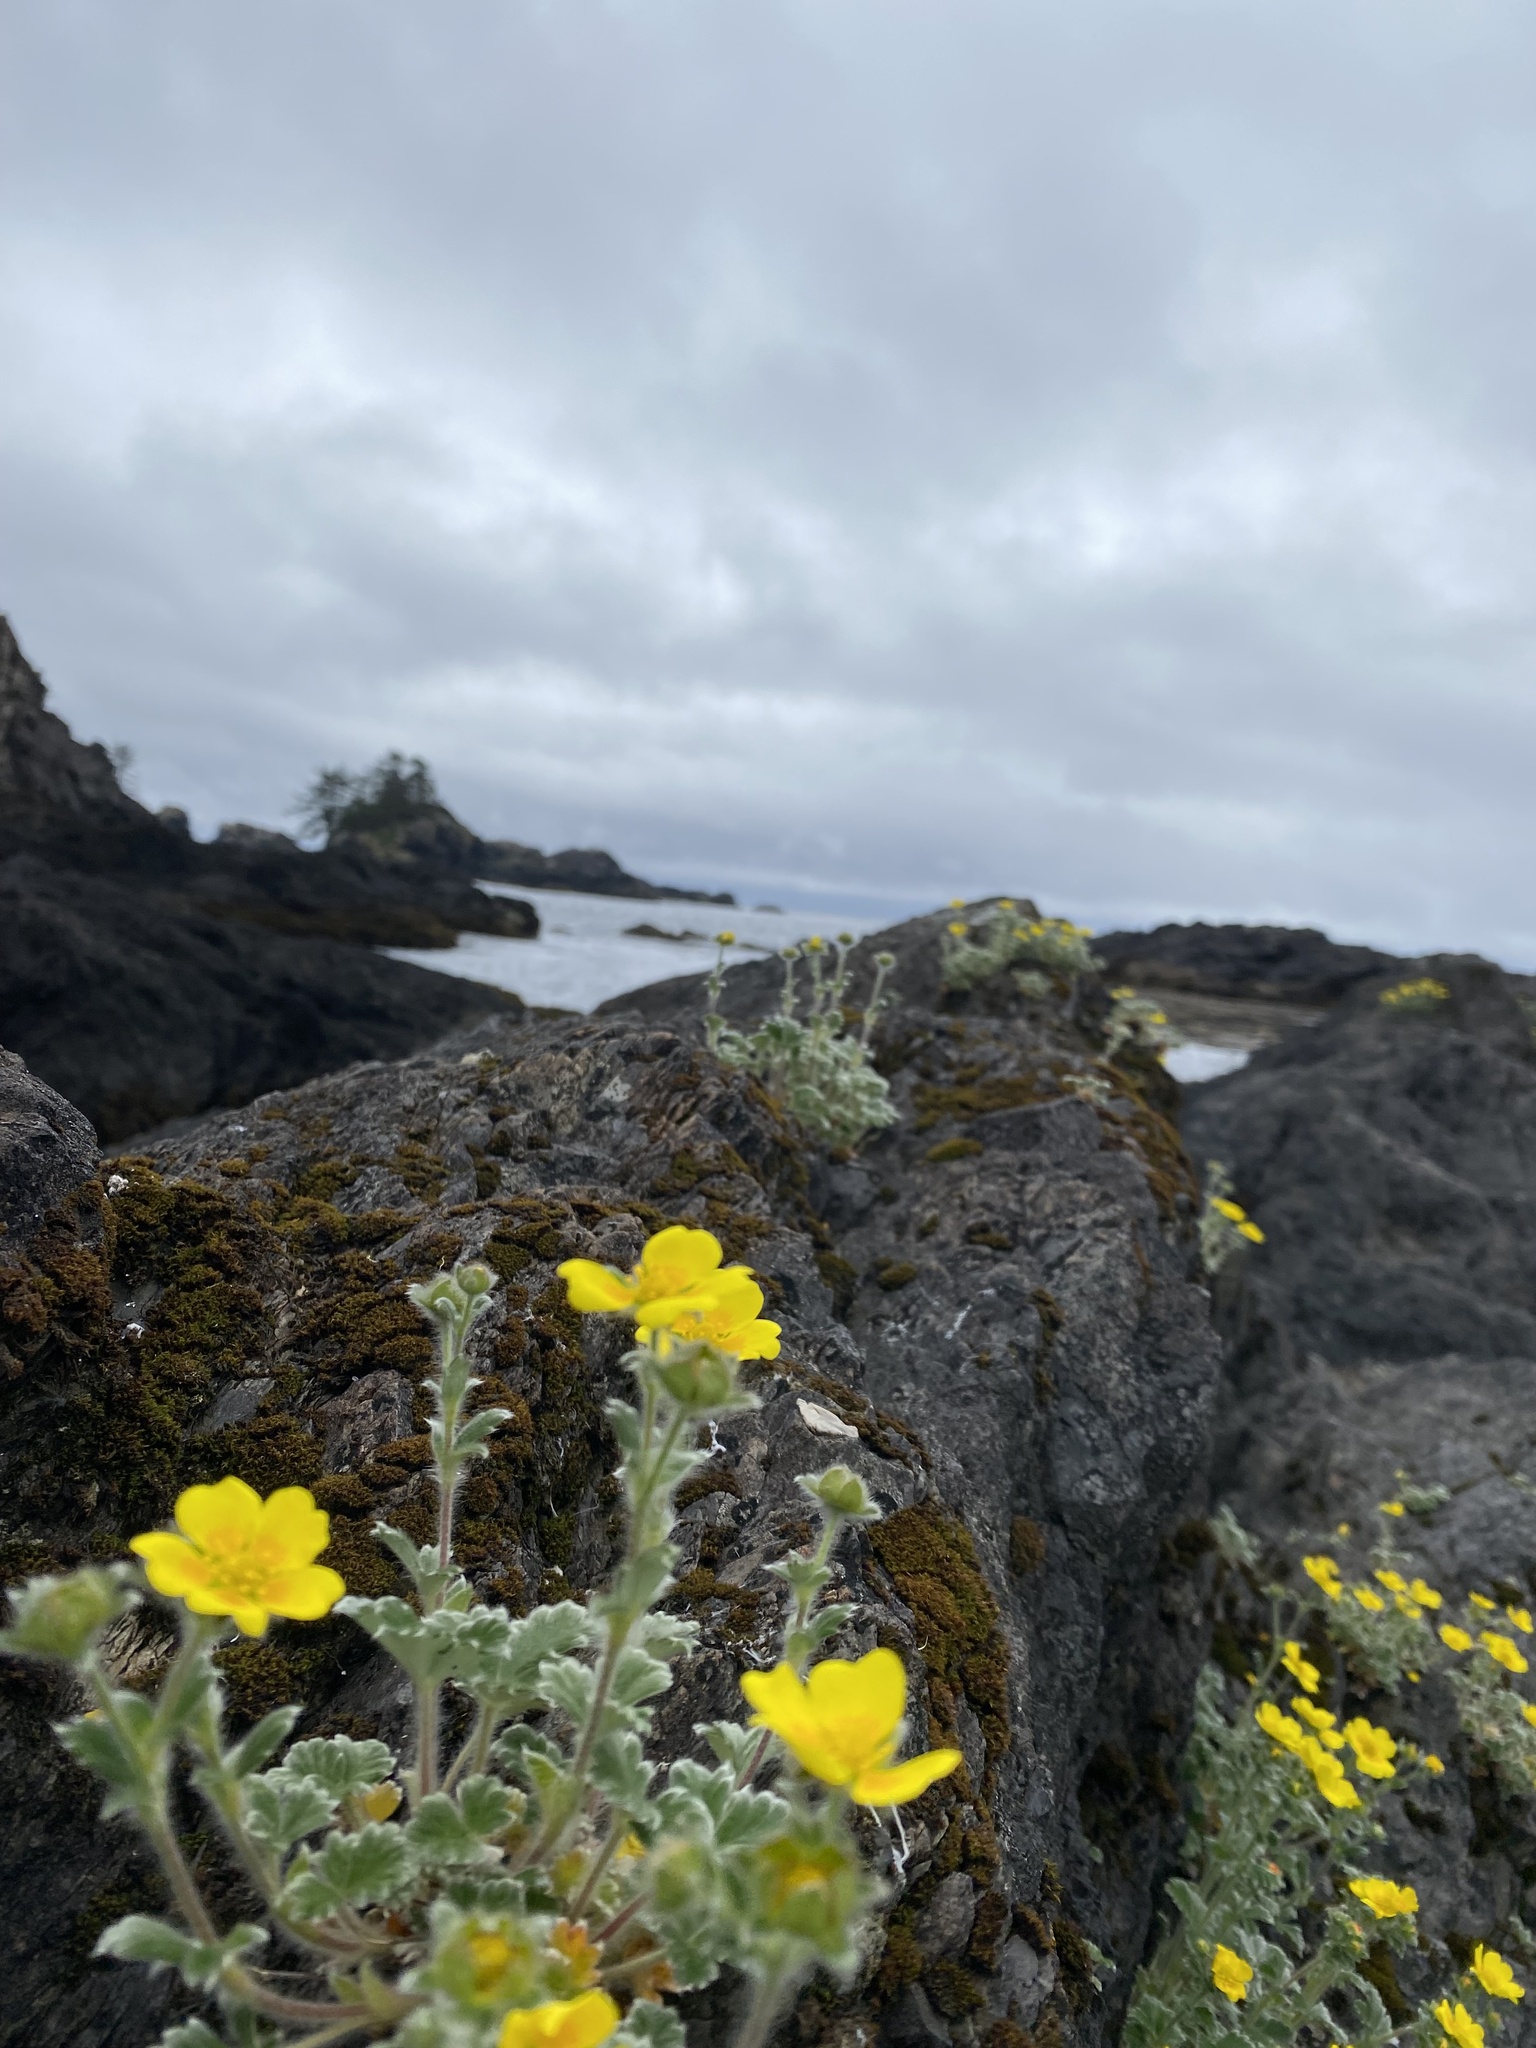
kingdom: Plantae
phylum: Tracheophyta
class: Magnoliopsida
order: Rosales
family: Rosaceae
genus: Potentilla
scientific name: Potentilla villosa
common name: Northern cinquefoil
